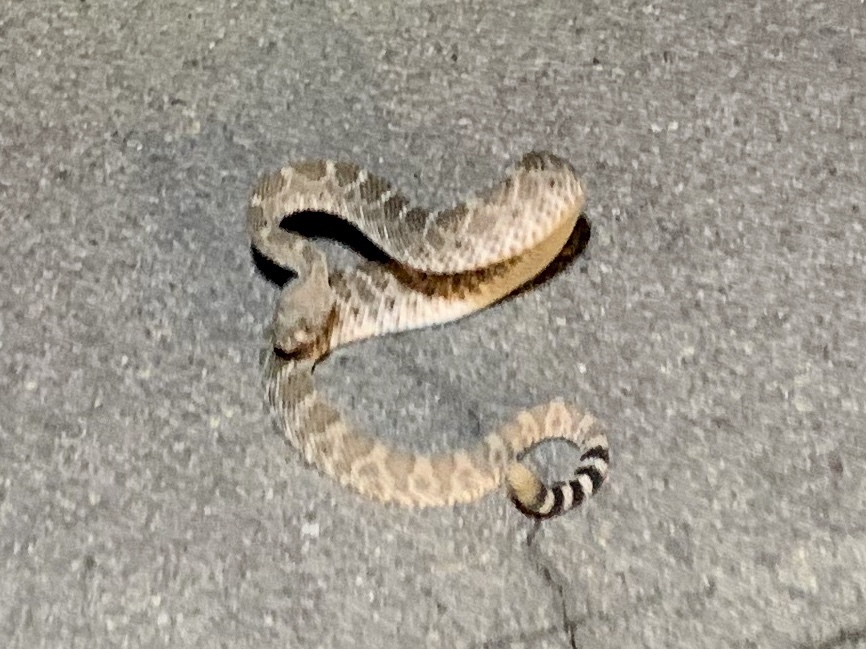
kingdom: Animalia
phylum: Chordata
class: Squamata
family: Viperidae
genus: Crotalus
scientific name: Crotalus atrox
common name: Western diamond-backed rattlesnake
